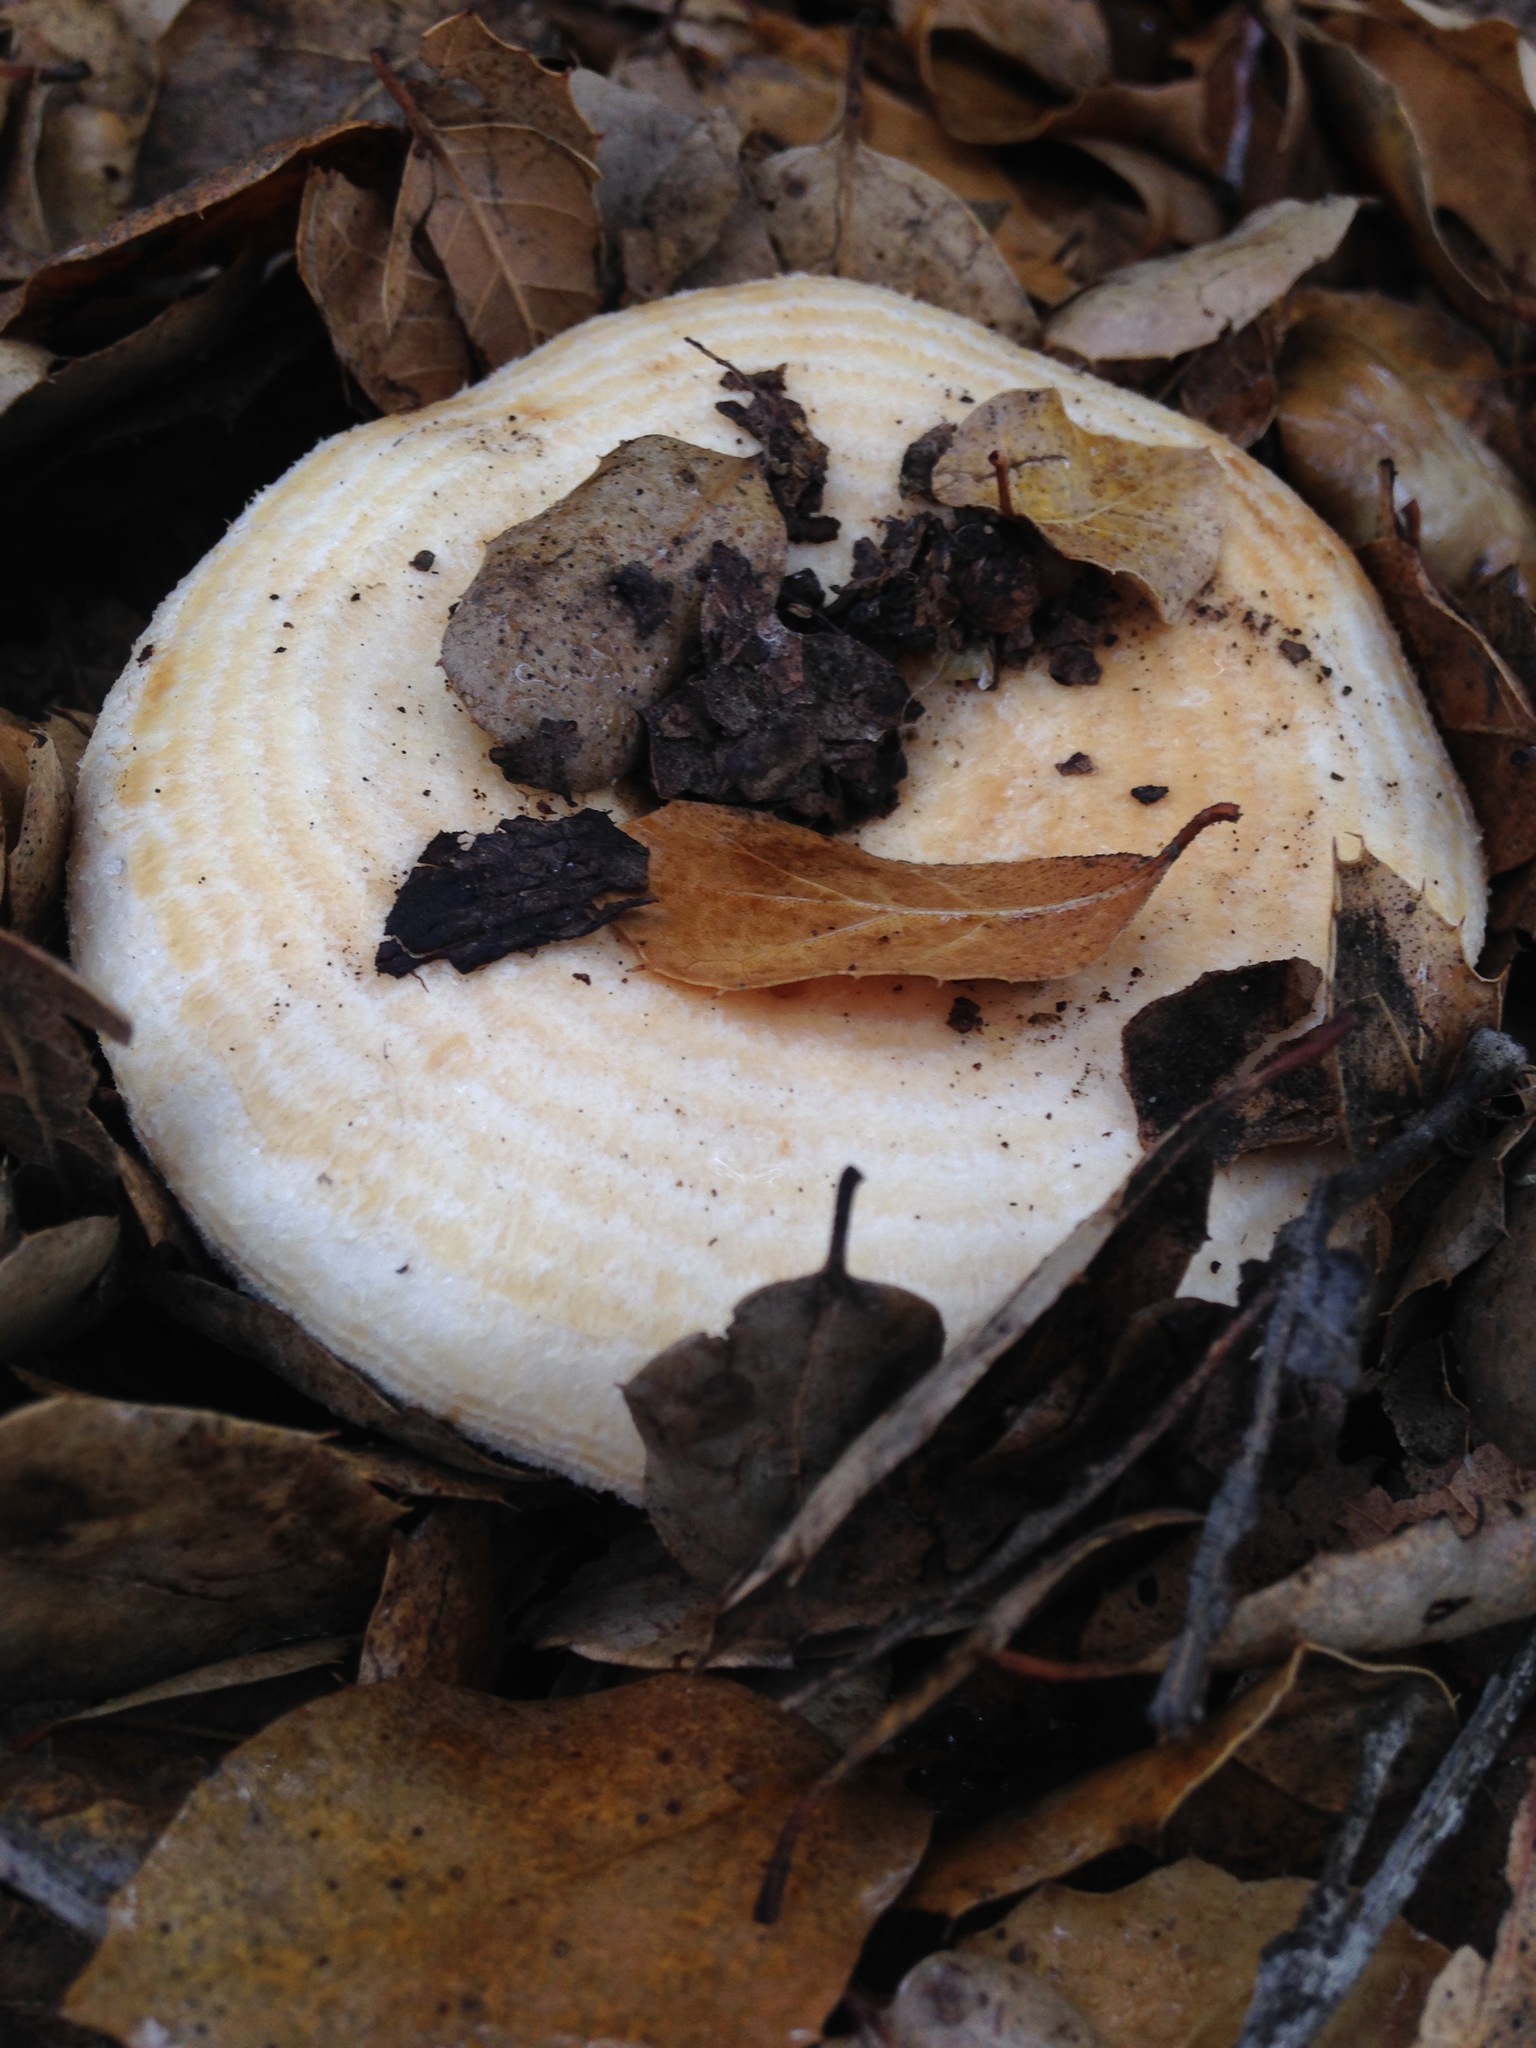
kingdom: Fungi
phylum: Basidiomycota
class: Agaricomycetes
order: Russulales
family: Russulaceae
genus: Lactarius
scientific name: Lactarius alnicola
